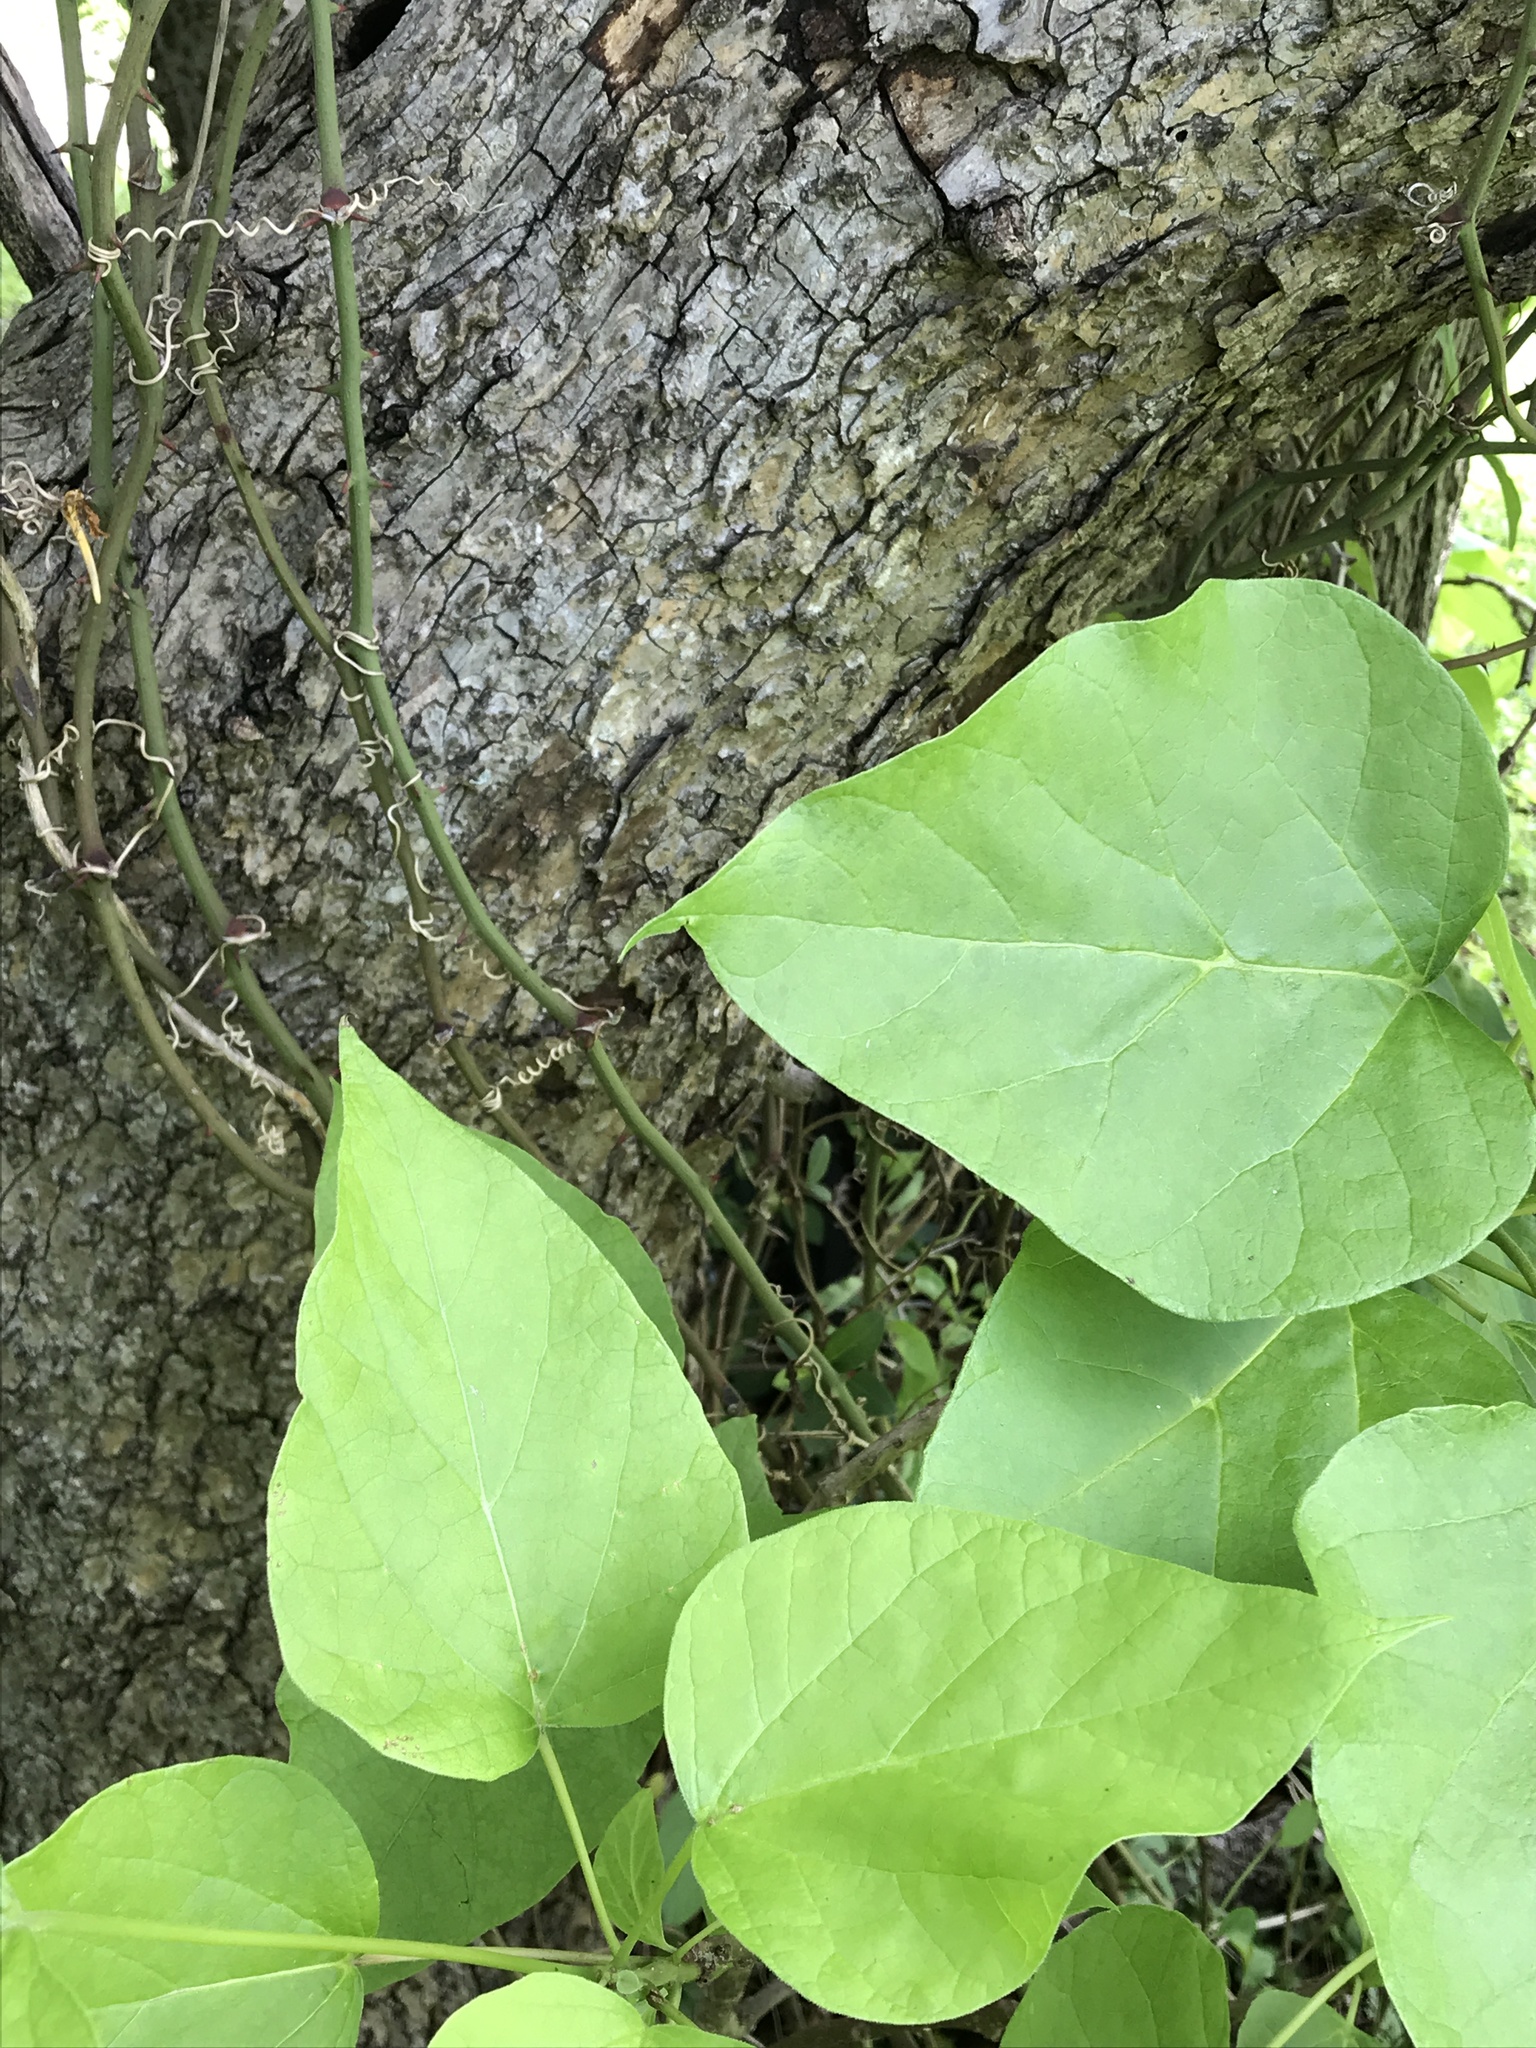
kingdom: Plantae
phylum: Tracheophyta
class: Magnoliopsida
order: Lamiales
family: Bignoniaceae
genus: Catalpa
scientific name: Catalpa bignonioides
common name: Southern catalpa
